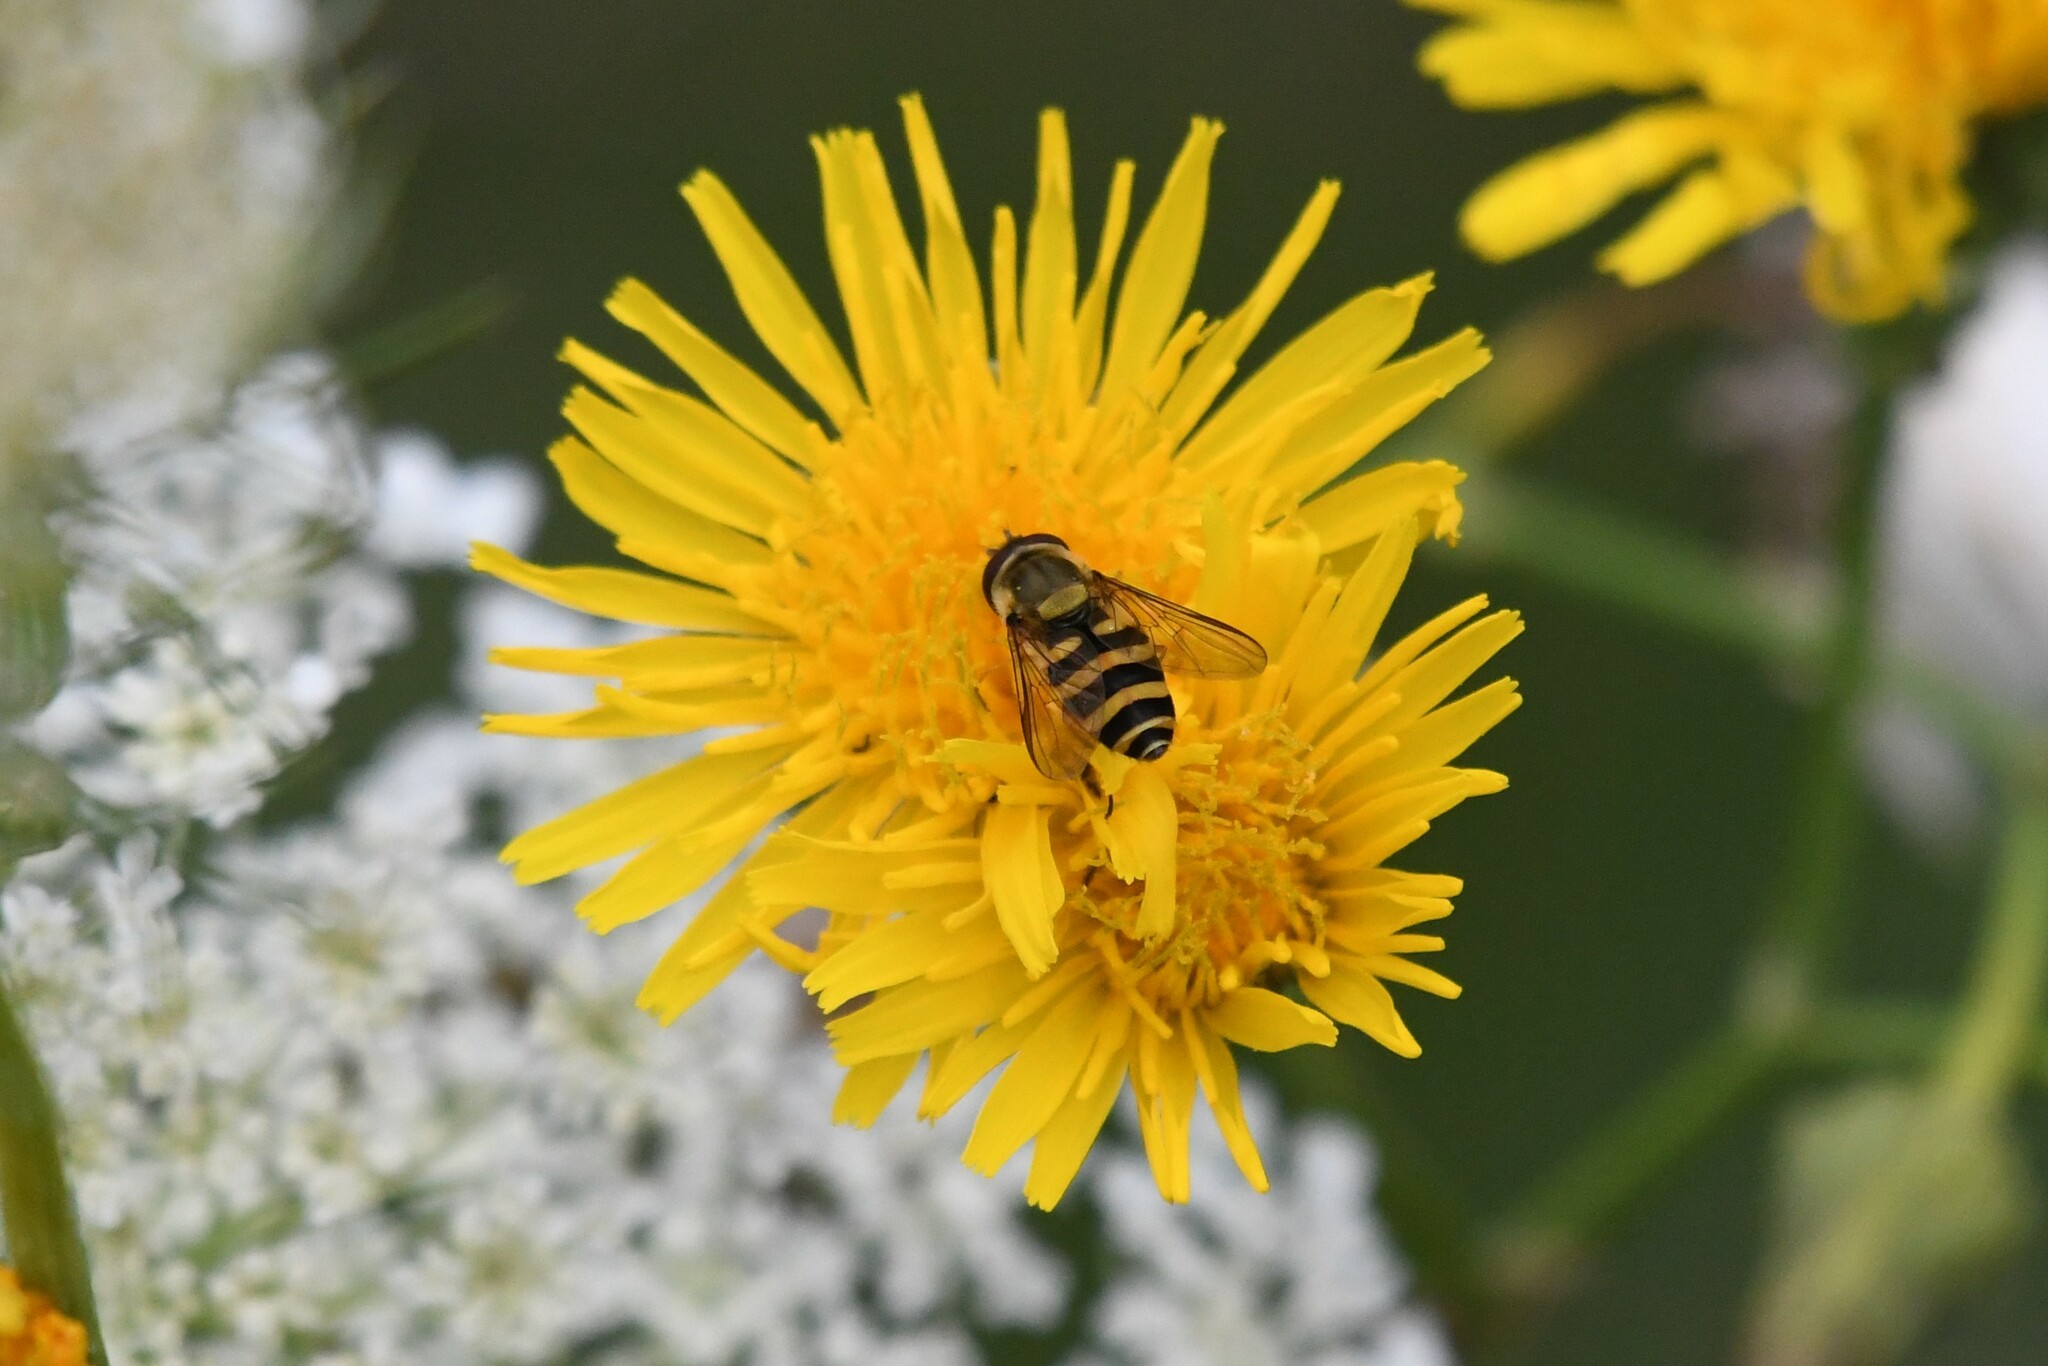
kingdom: Animalia
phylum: Arthropoda
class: Insecta
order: Diptera
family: Syrphidae
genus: Syrphus
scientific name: Syrphus
